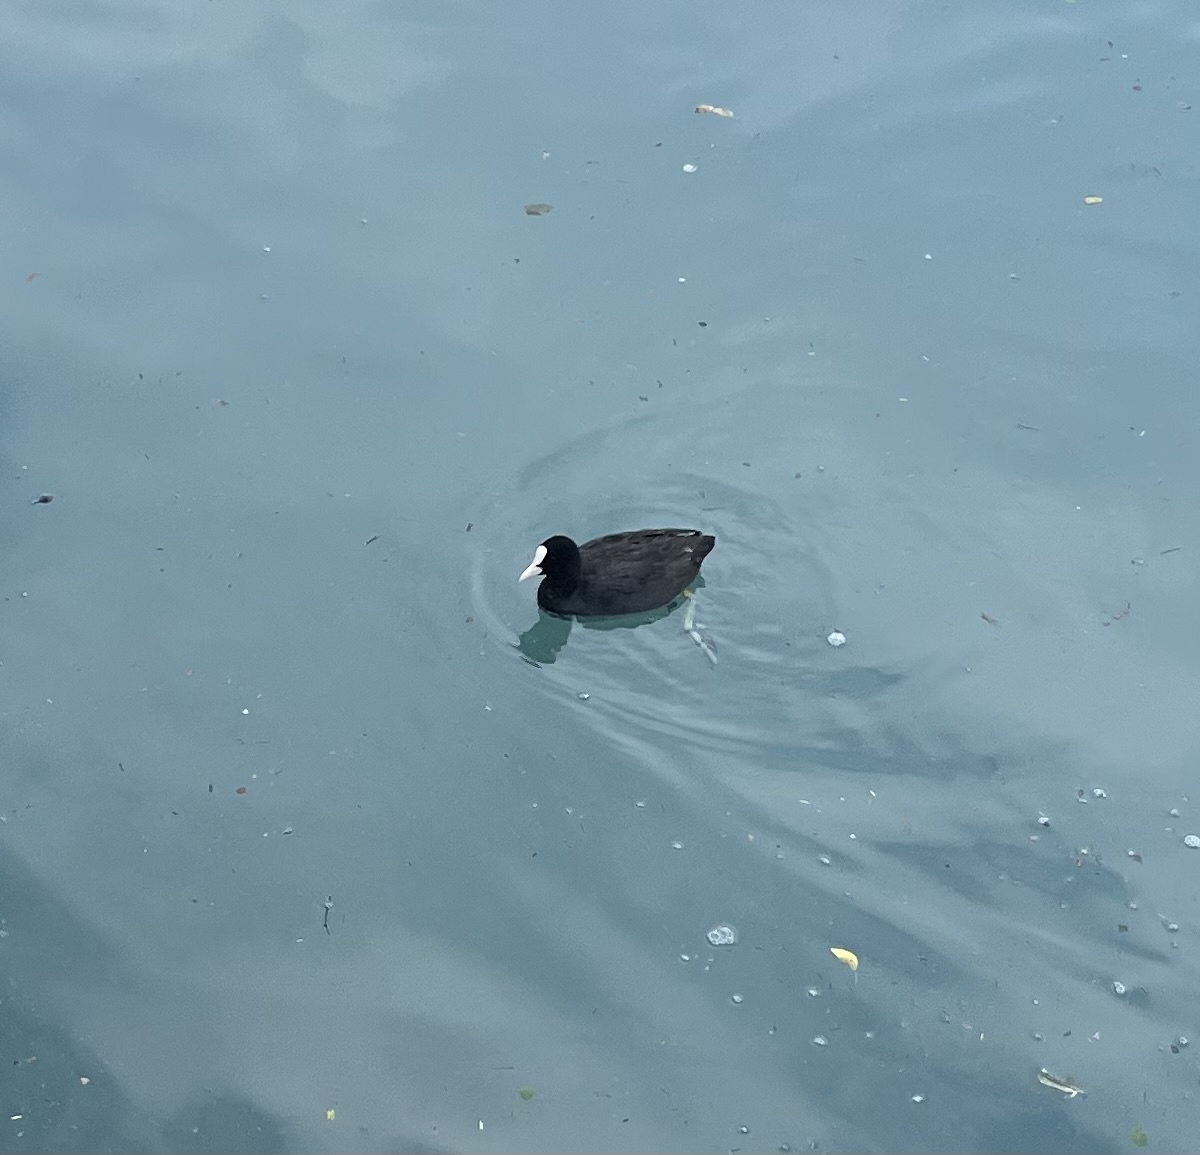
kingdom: Animalia
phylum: Chordata
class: Aves
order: Gruiformes
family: Rallidae
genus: Fulica
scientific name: Fulica atra
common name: Eurasian coot
